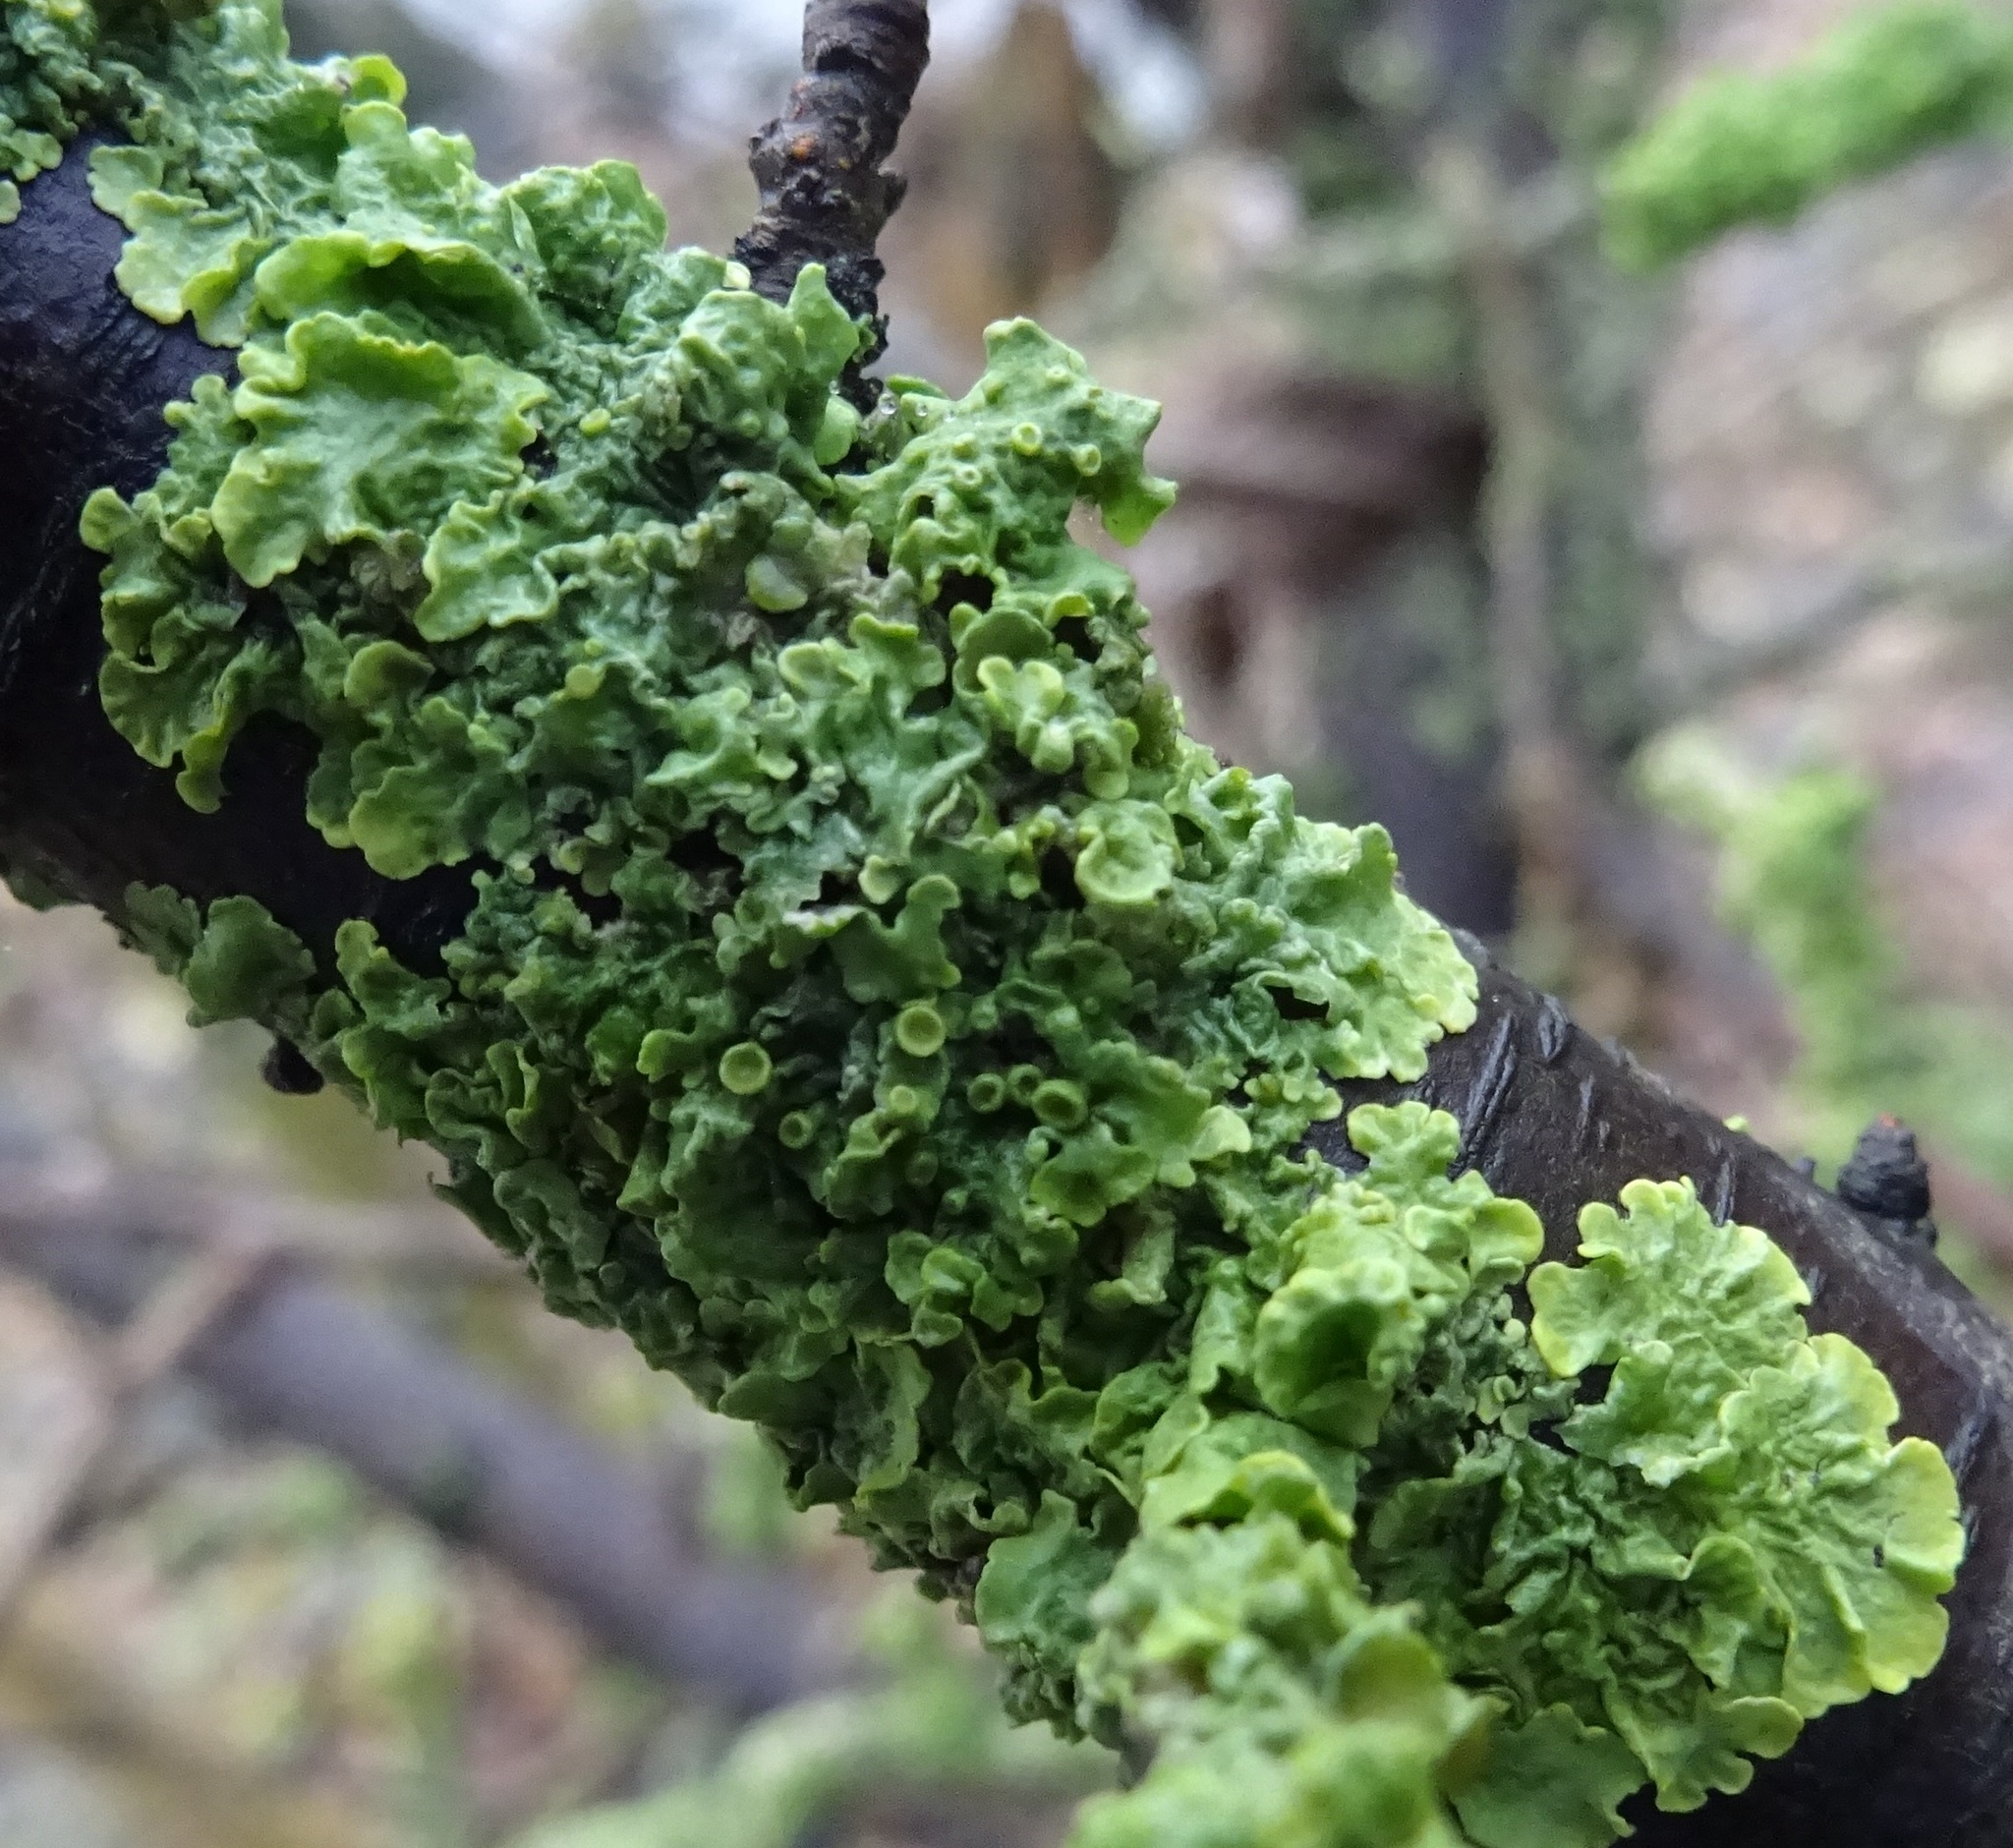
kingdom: Fungi
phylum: Ascomycota
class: Lecanoromycetes
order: Teloschistales
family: Teloschistaceae
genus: Xanthoria
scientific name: Xanthoria parietina
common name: Common orange lichen
